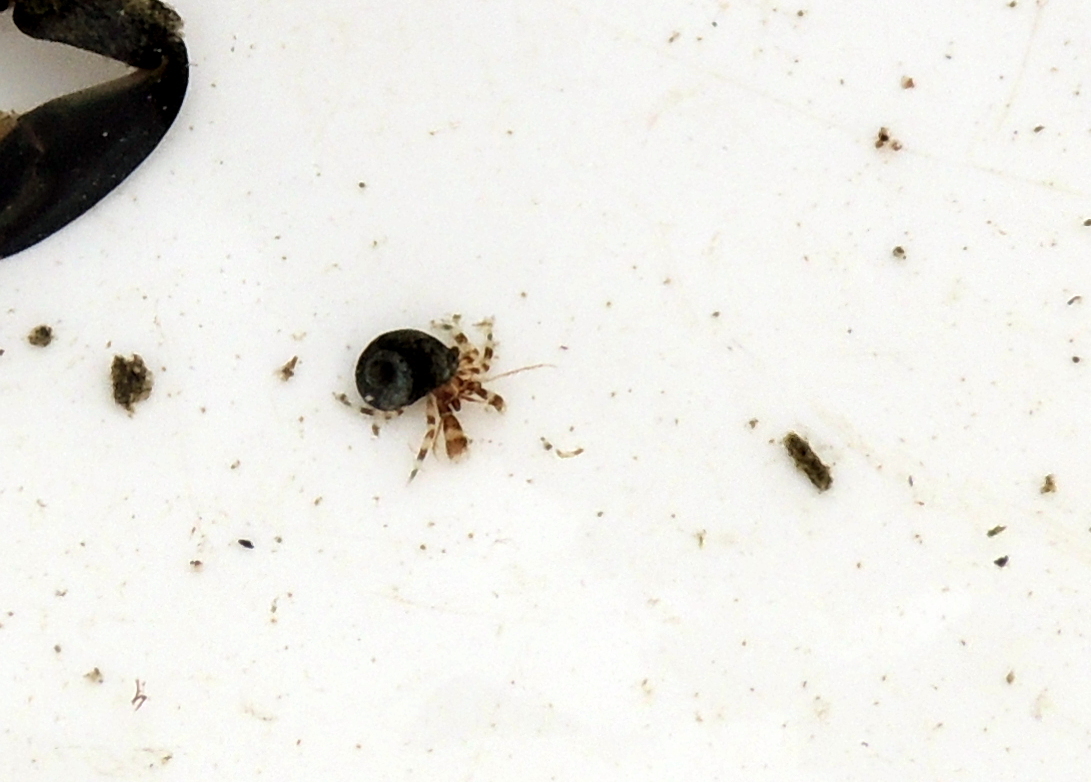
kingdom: Animalia
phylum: Arthropoda
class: Malacostraca
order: Decapoda
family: Paguridae
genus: Pagurus
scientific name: Pagurus samuelis
